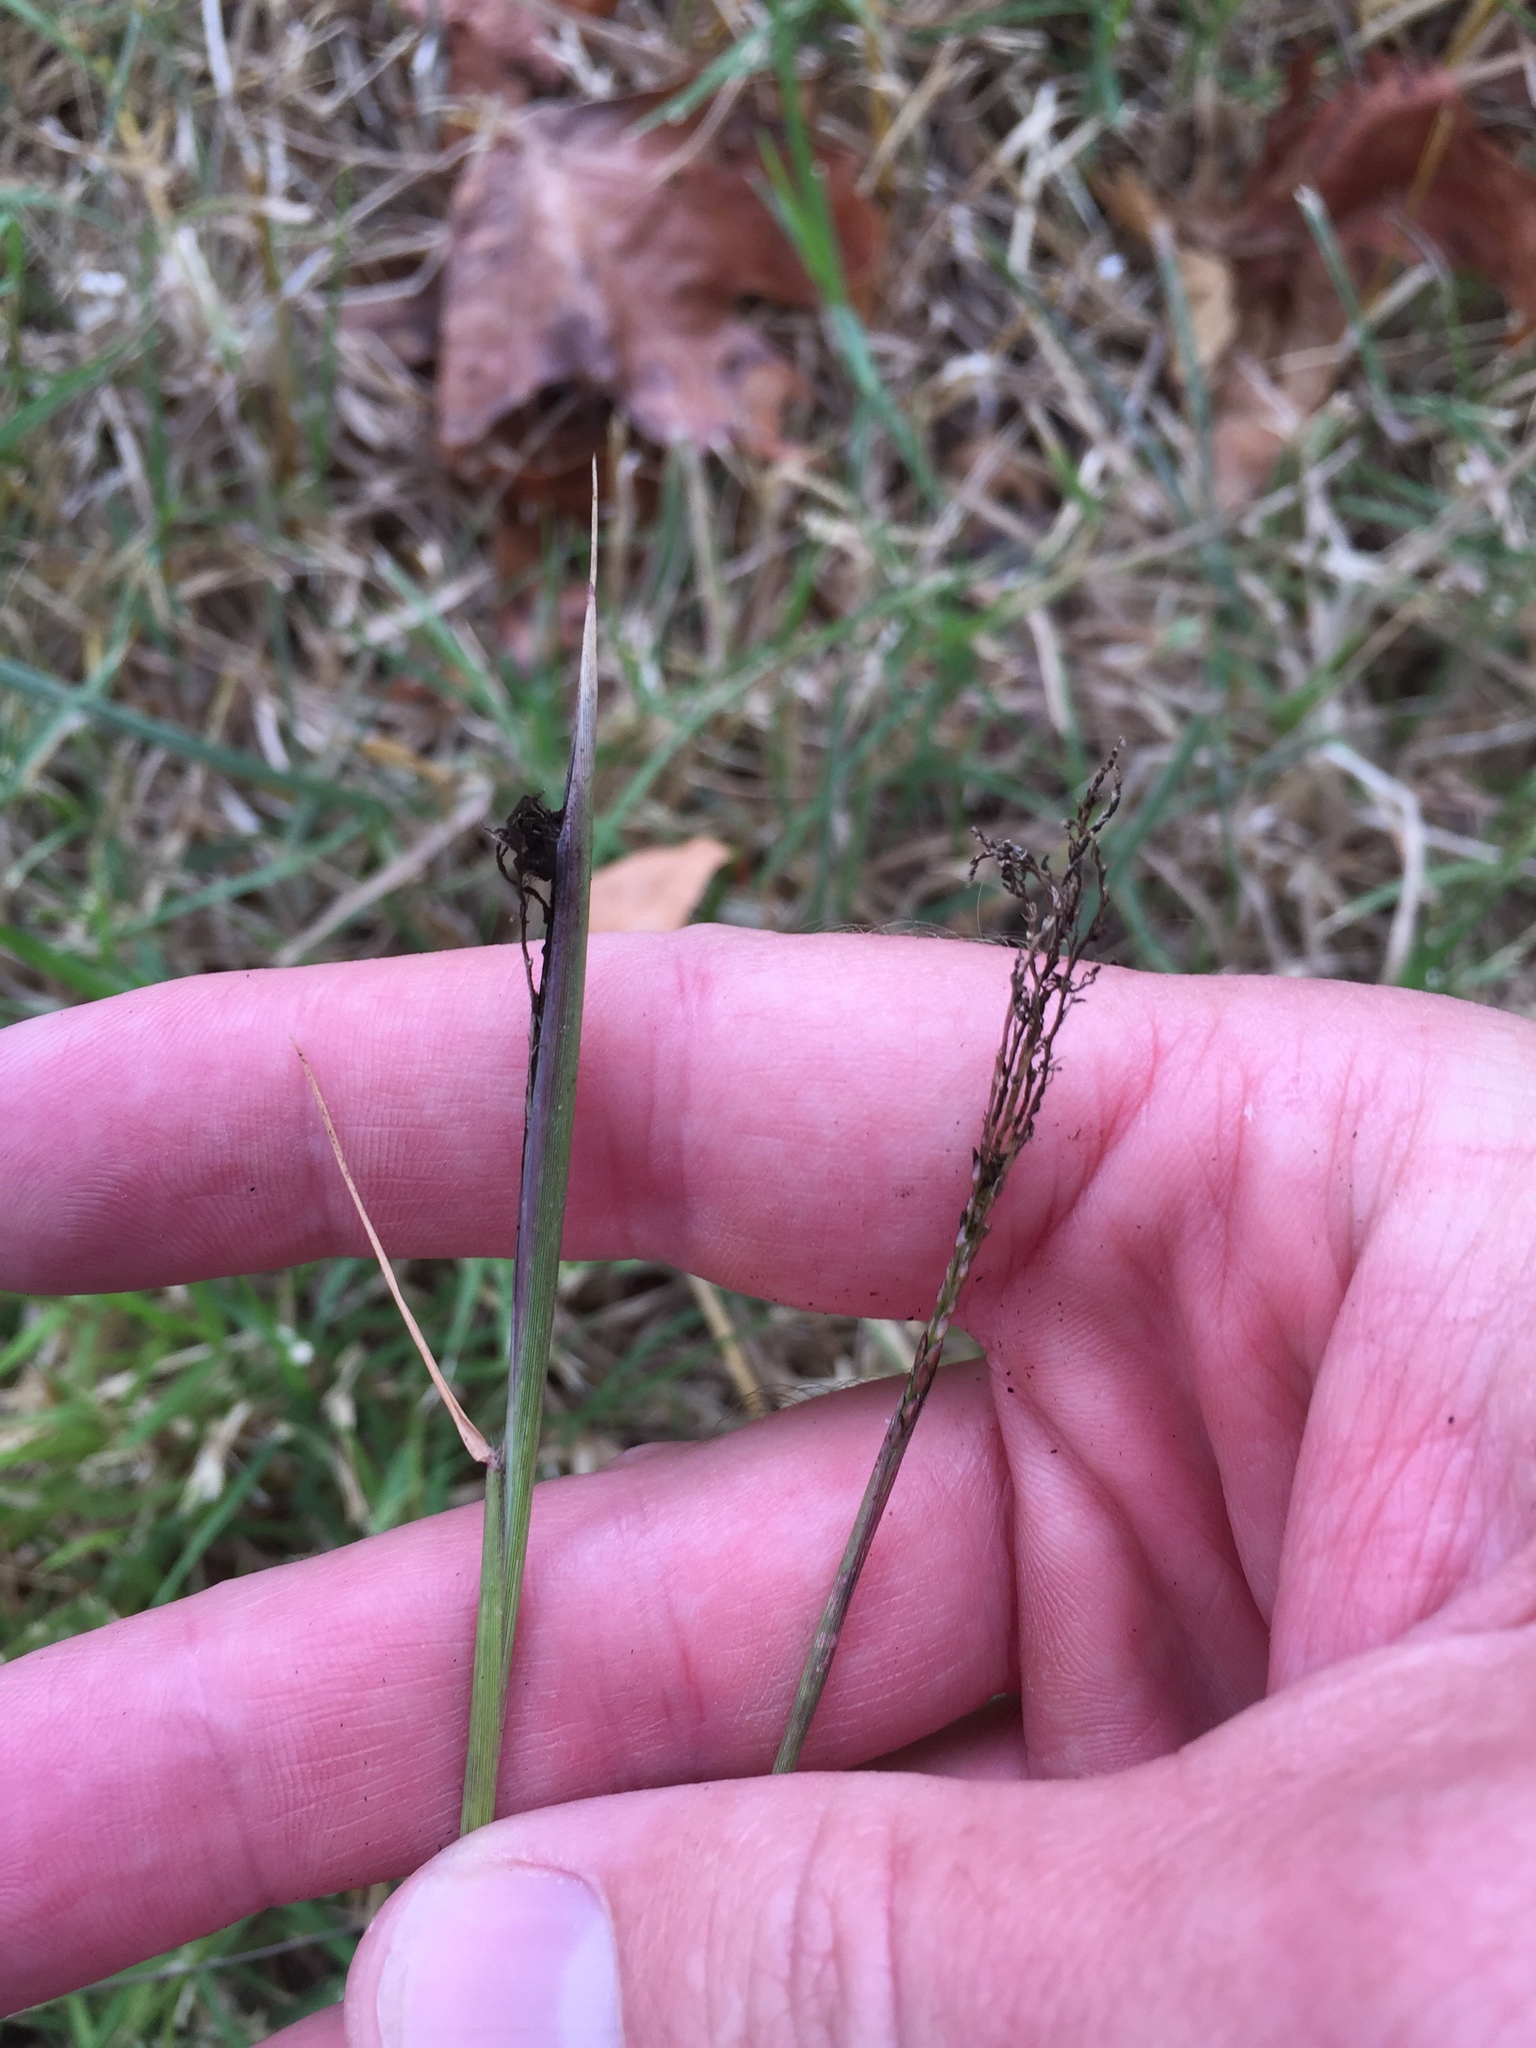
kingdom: Fungi
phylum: Basidiomycota
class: Ustilaginomycetes
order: Ustilaginales
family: Ustilaginaceae
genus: Ustilago
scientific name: Ustilago cynodontis
